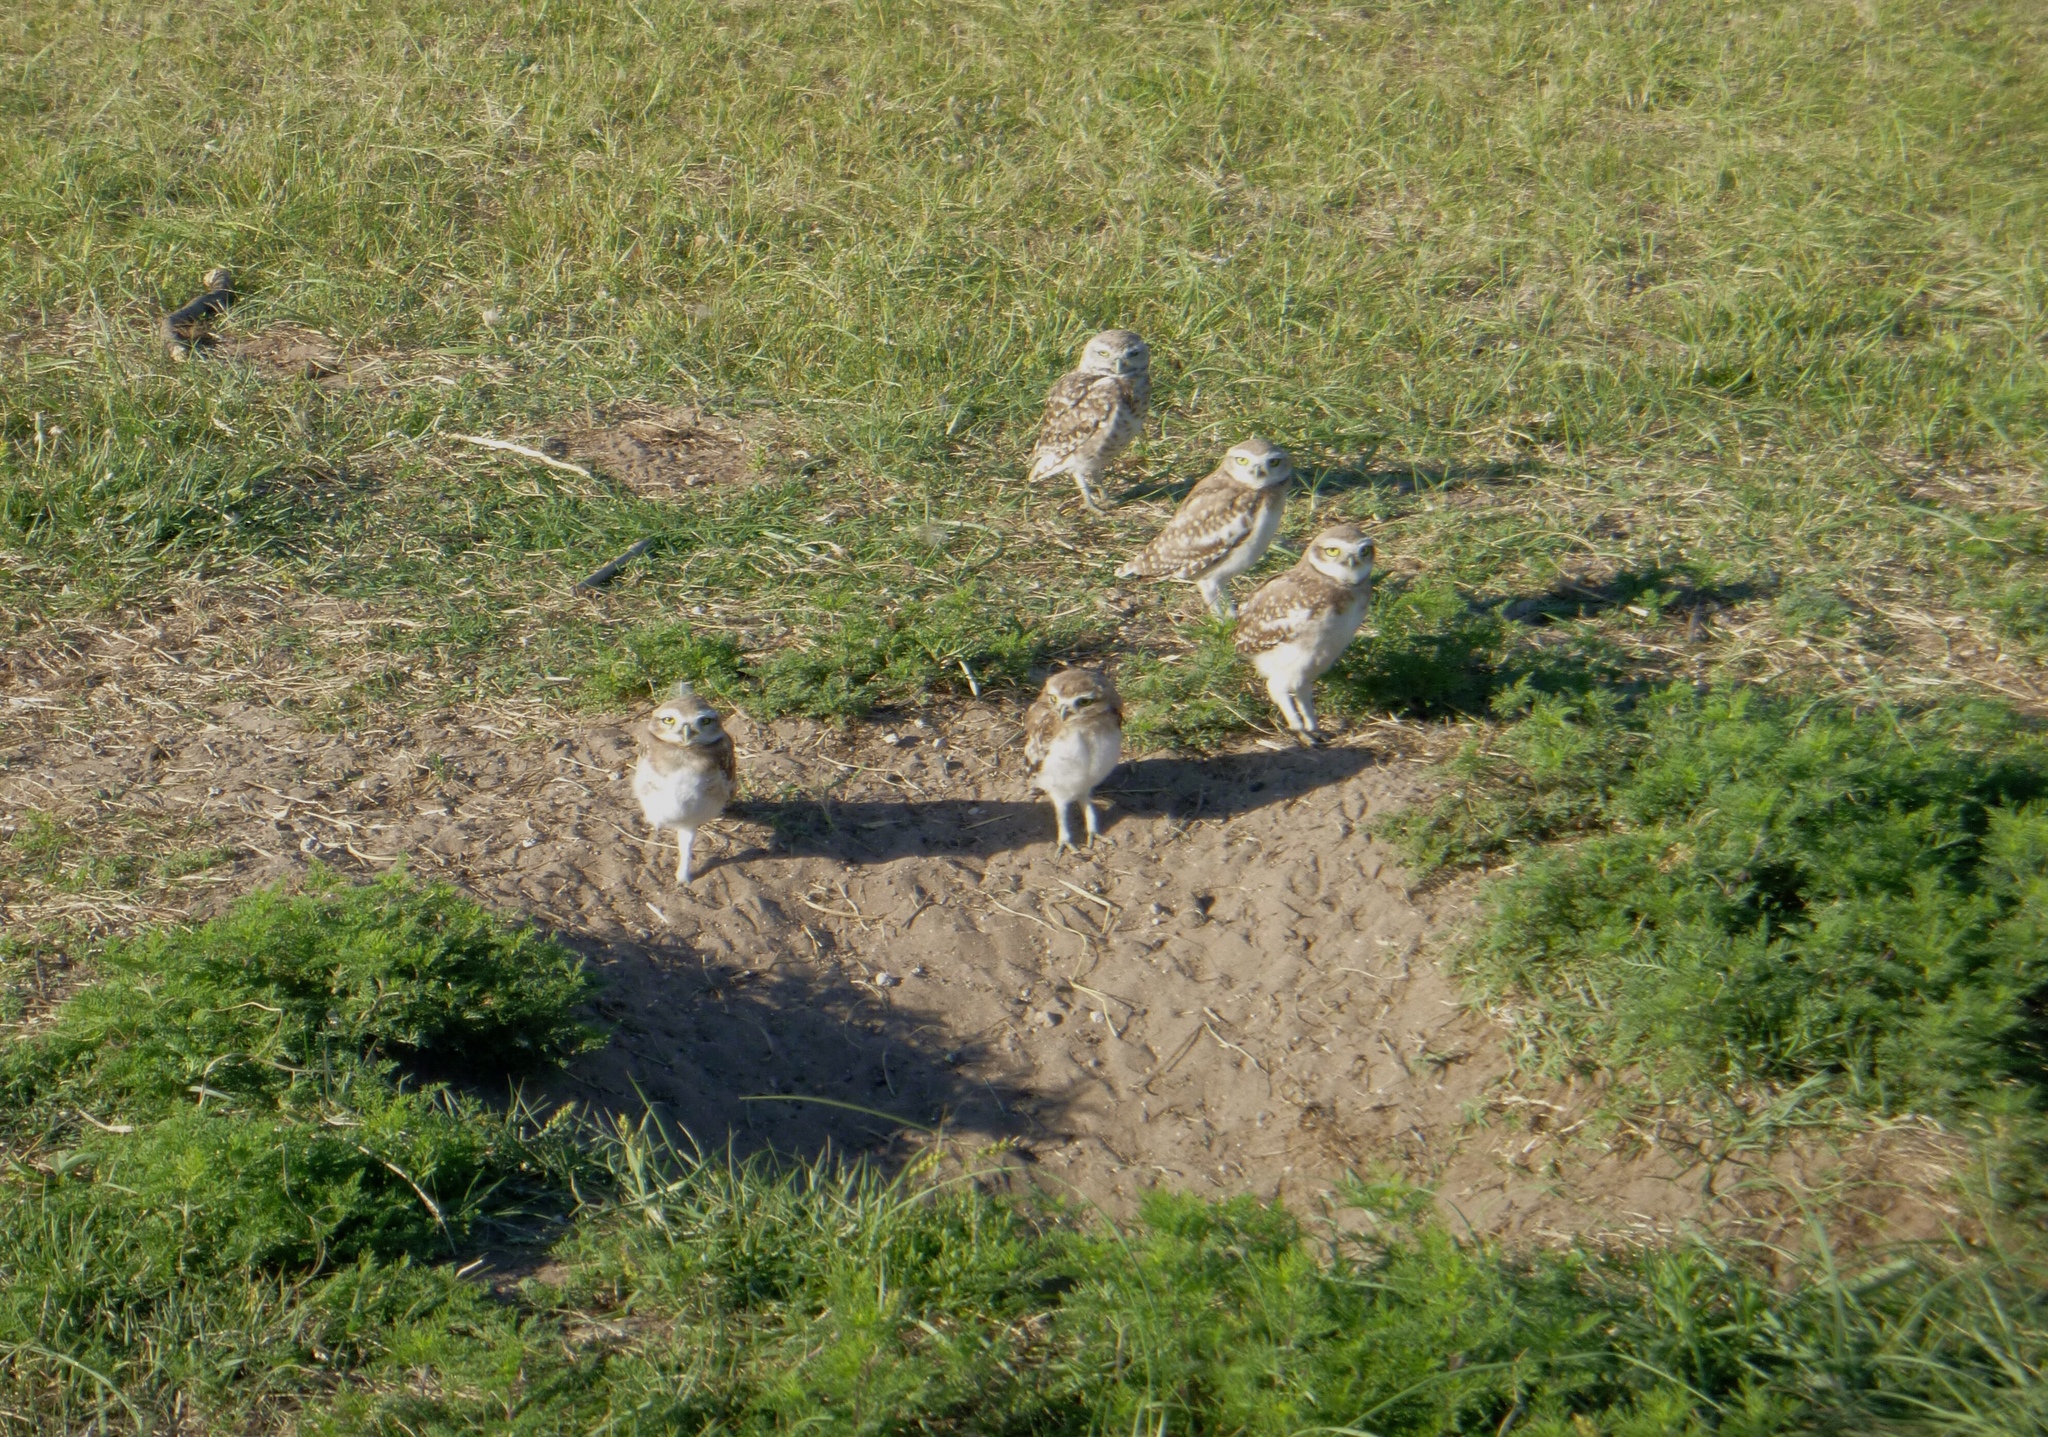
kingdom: Animalia
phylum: Chordata
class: Aves
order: Strigiformes
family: Strigidae
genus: Athene
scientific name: Athene cunicularia
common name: Burrowing owl
